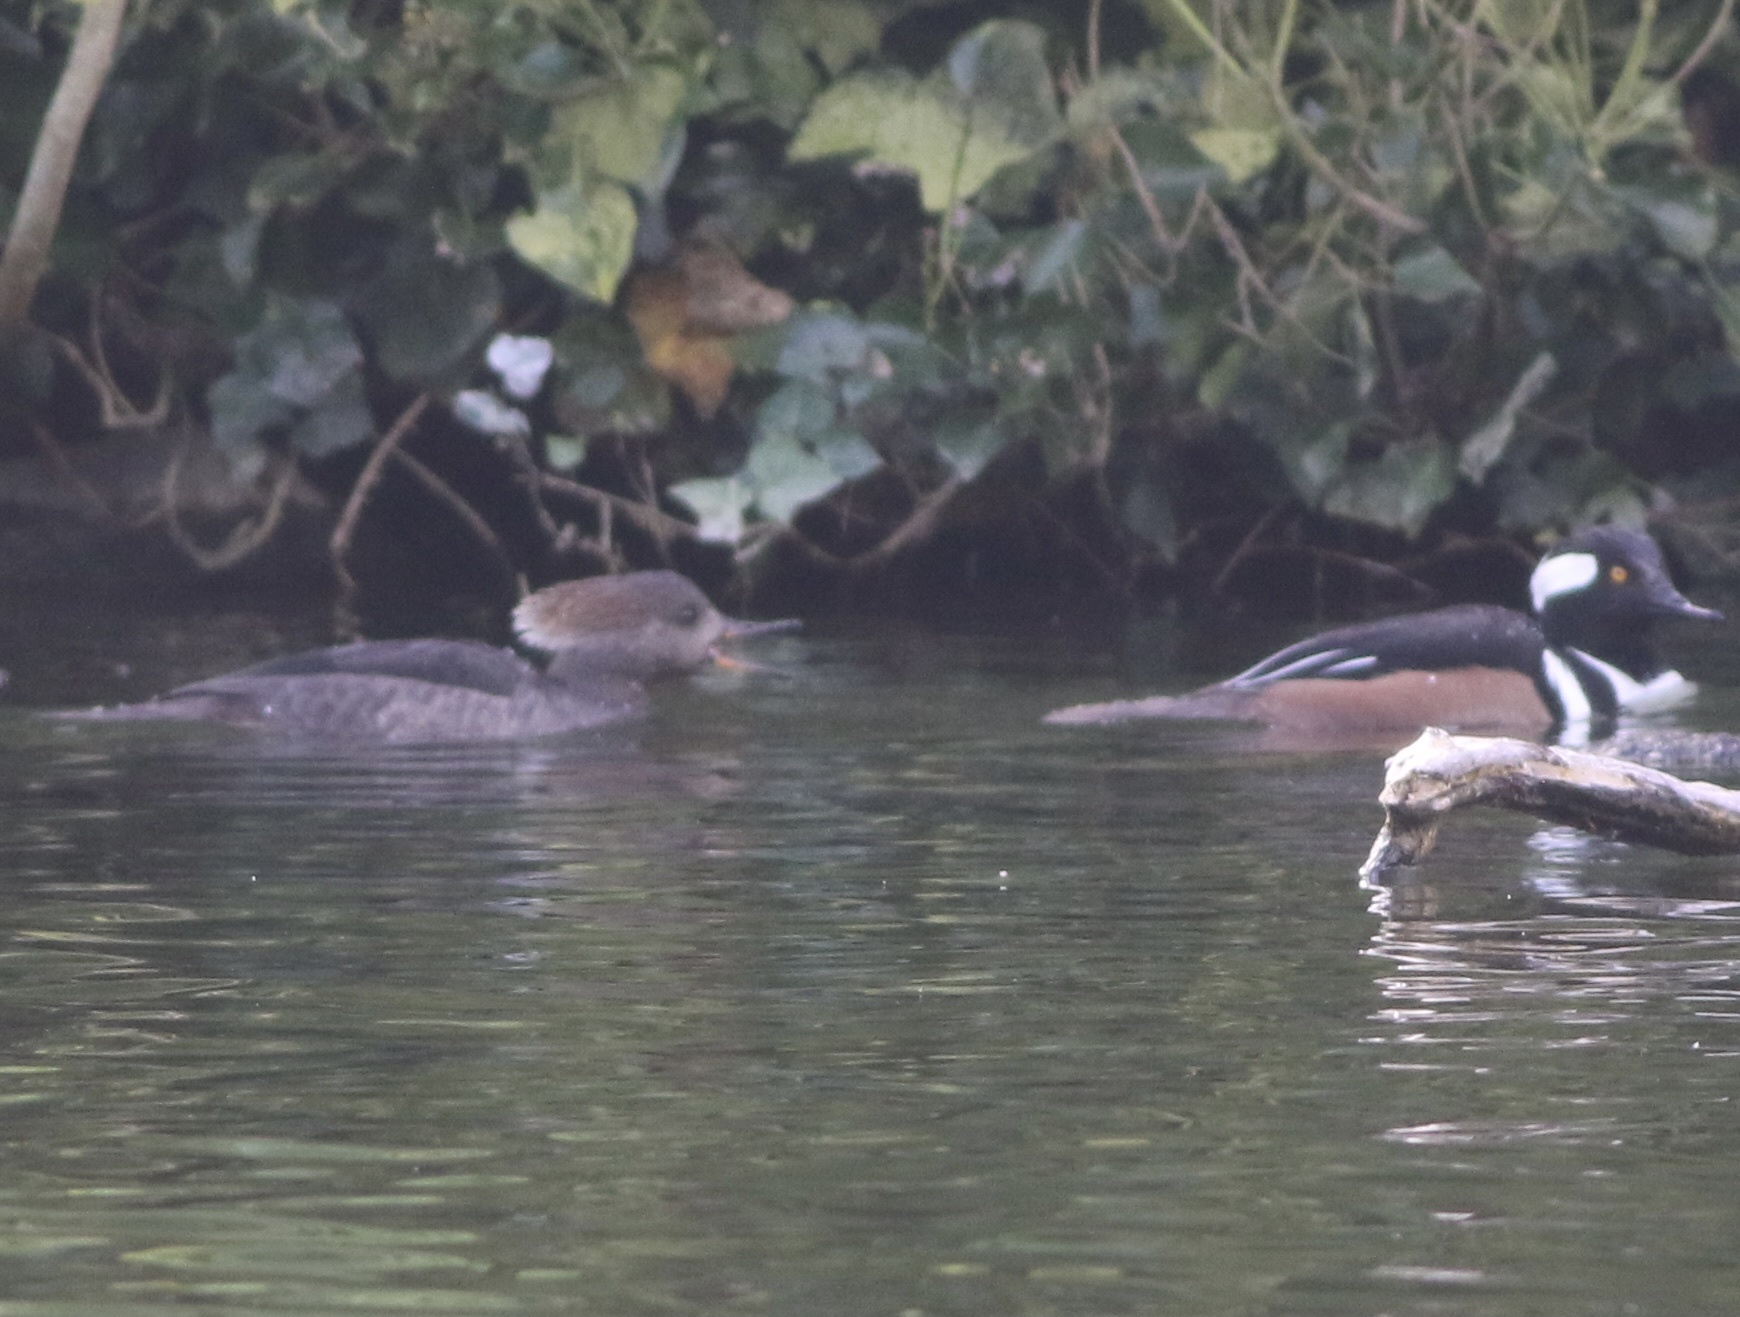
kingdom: Animalia
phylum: Chordata
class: Aves
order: Anseriformes
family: Anatidae
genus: Lophodytes
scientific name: Lophodytes cucullatus
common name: Hooded merganser
